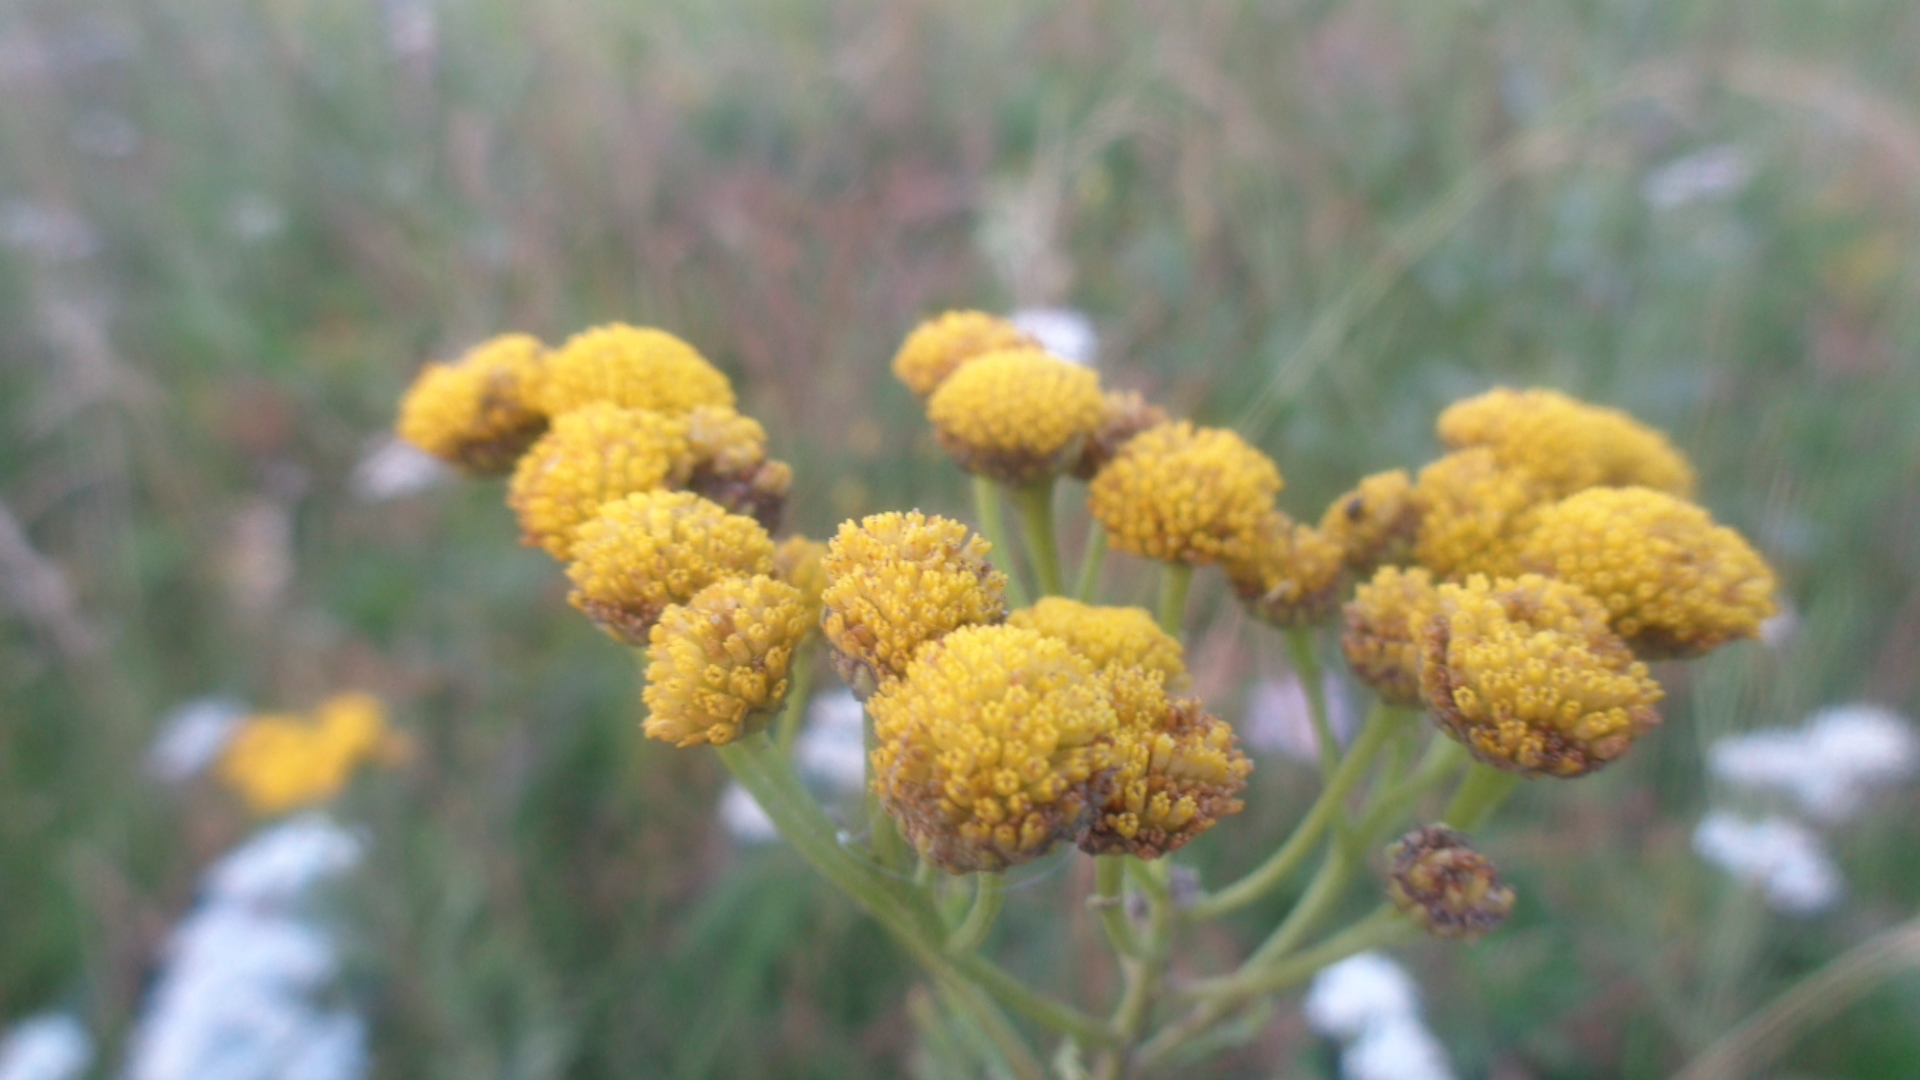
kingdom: Plantae
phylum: Tracheophyta
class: Magnoliopsida
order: Asterales
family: Asteraceae
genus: Tanacetum
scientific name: Tanacetum vulgare
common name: Common tansy
